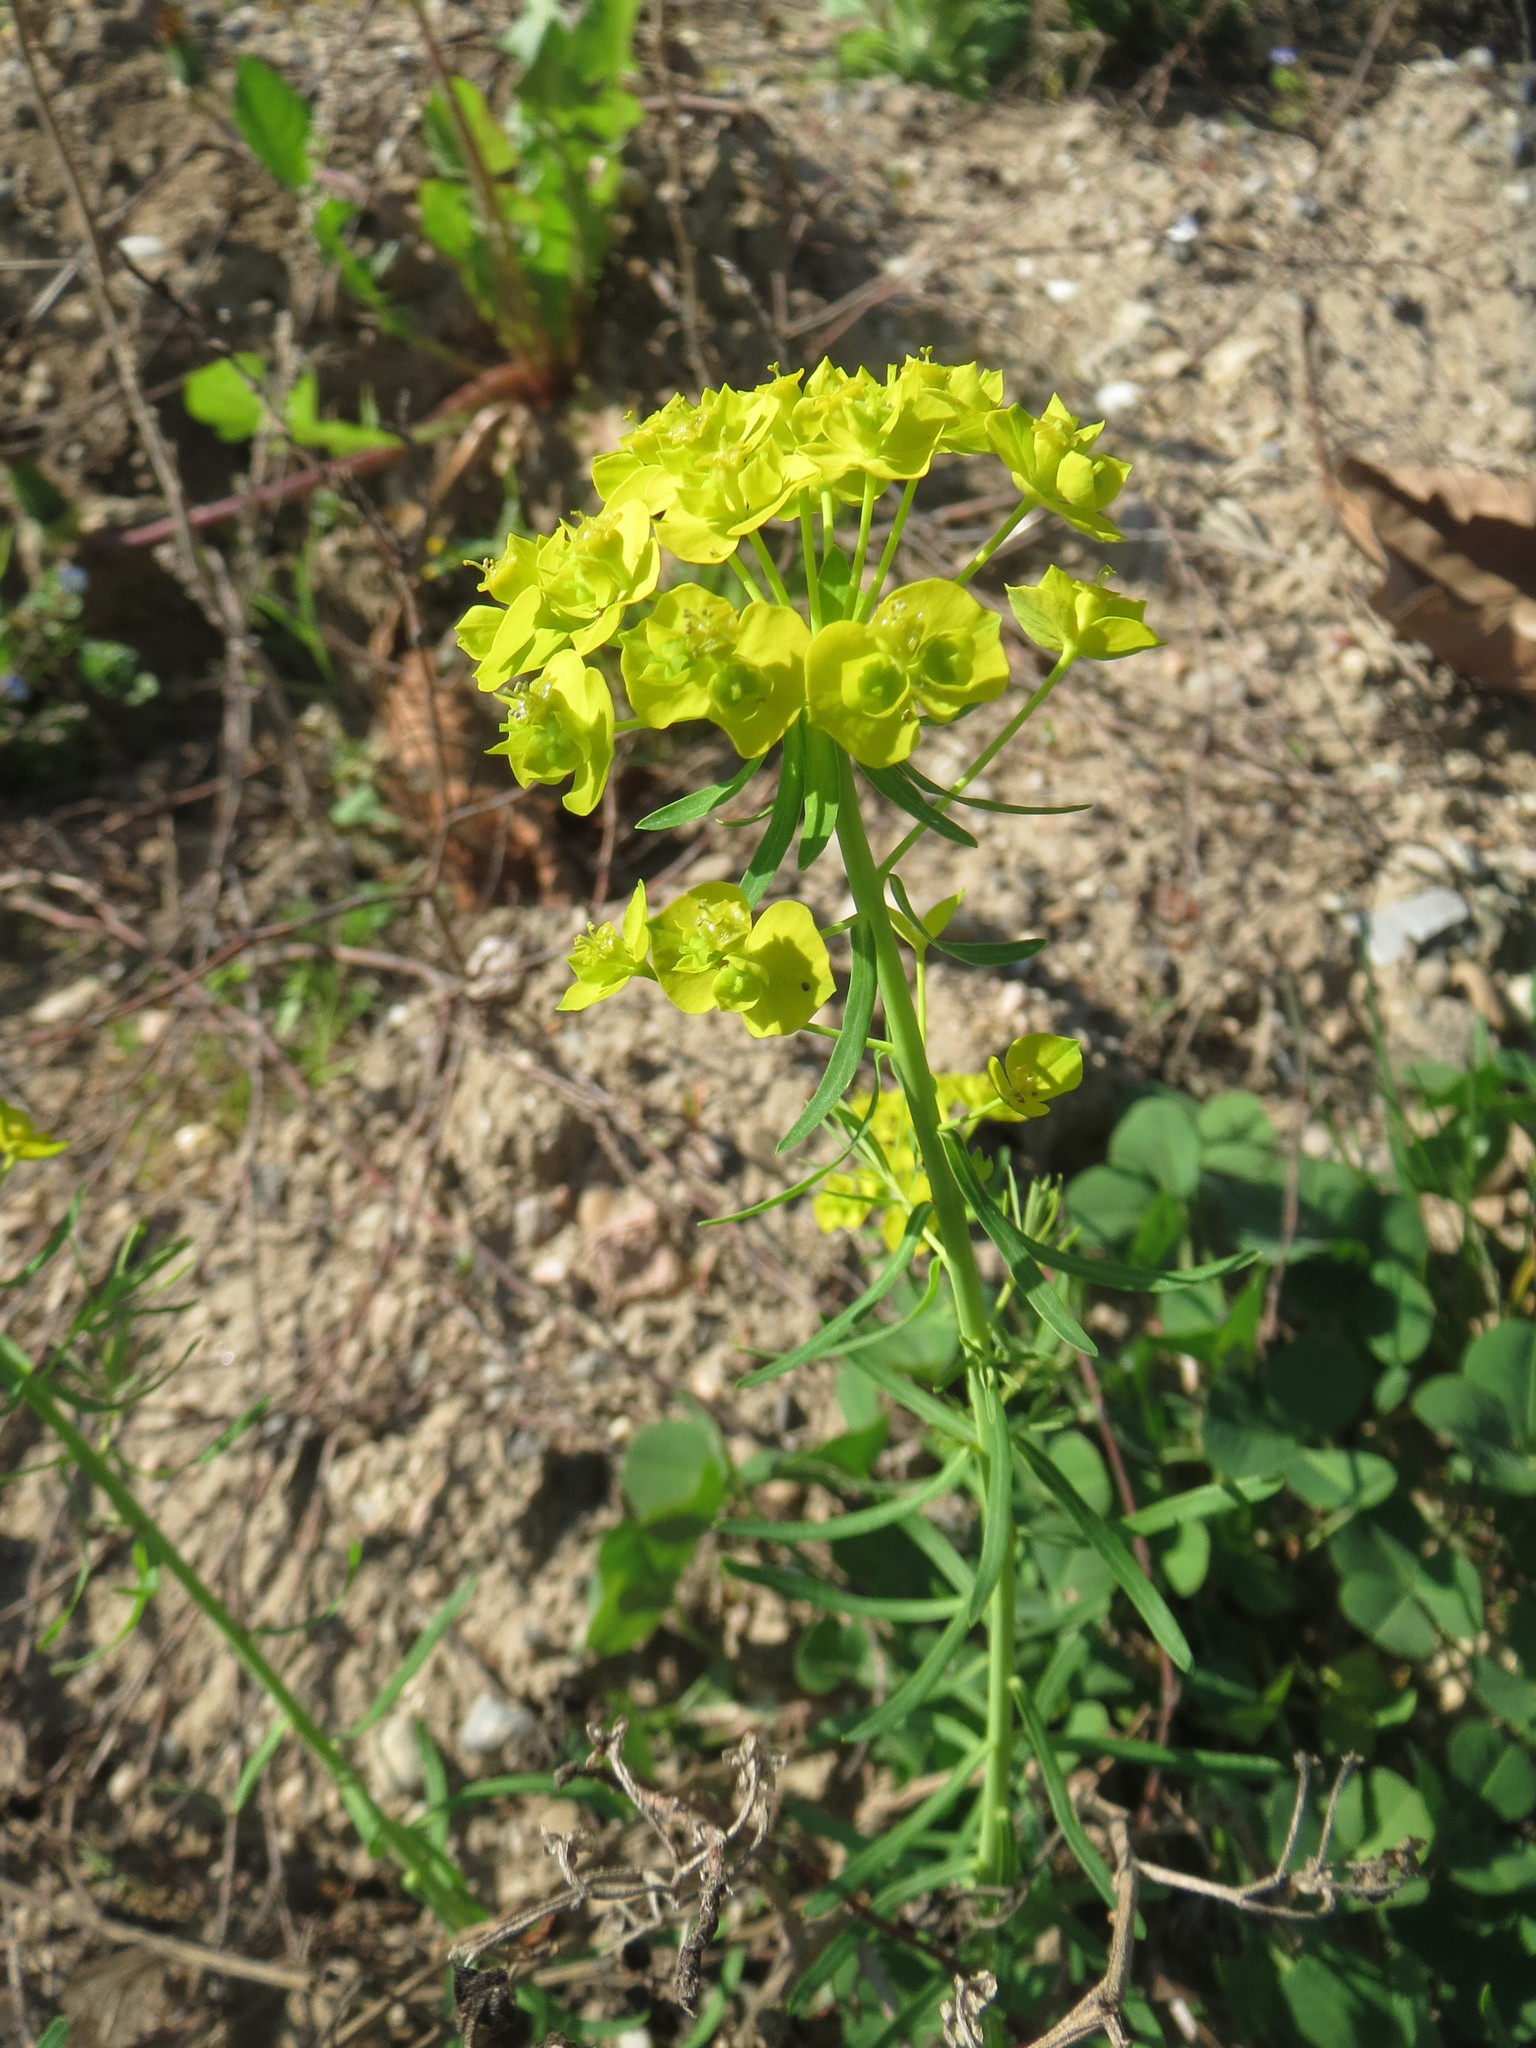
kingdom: Plantae
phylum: Tracheophyta
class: Magnoliopsida
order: Malpighiales
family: Euphorbiaceae
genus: Euphorbia
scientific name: Euphorbia cyparissias
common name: Cypress spurge
